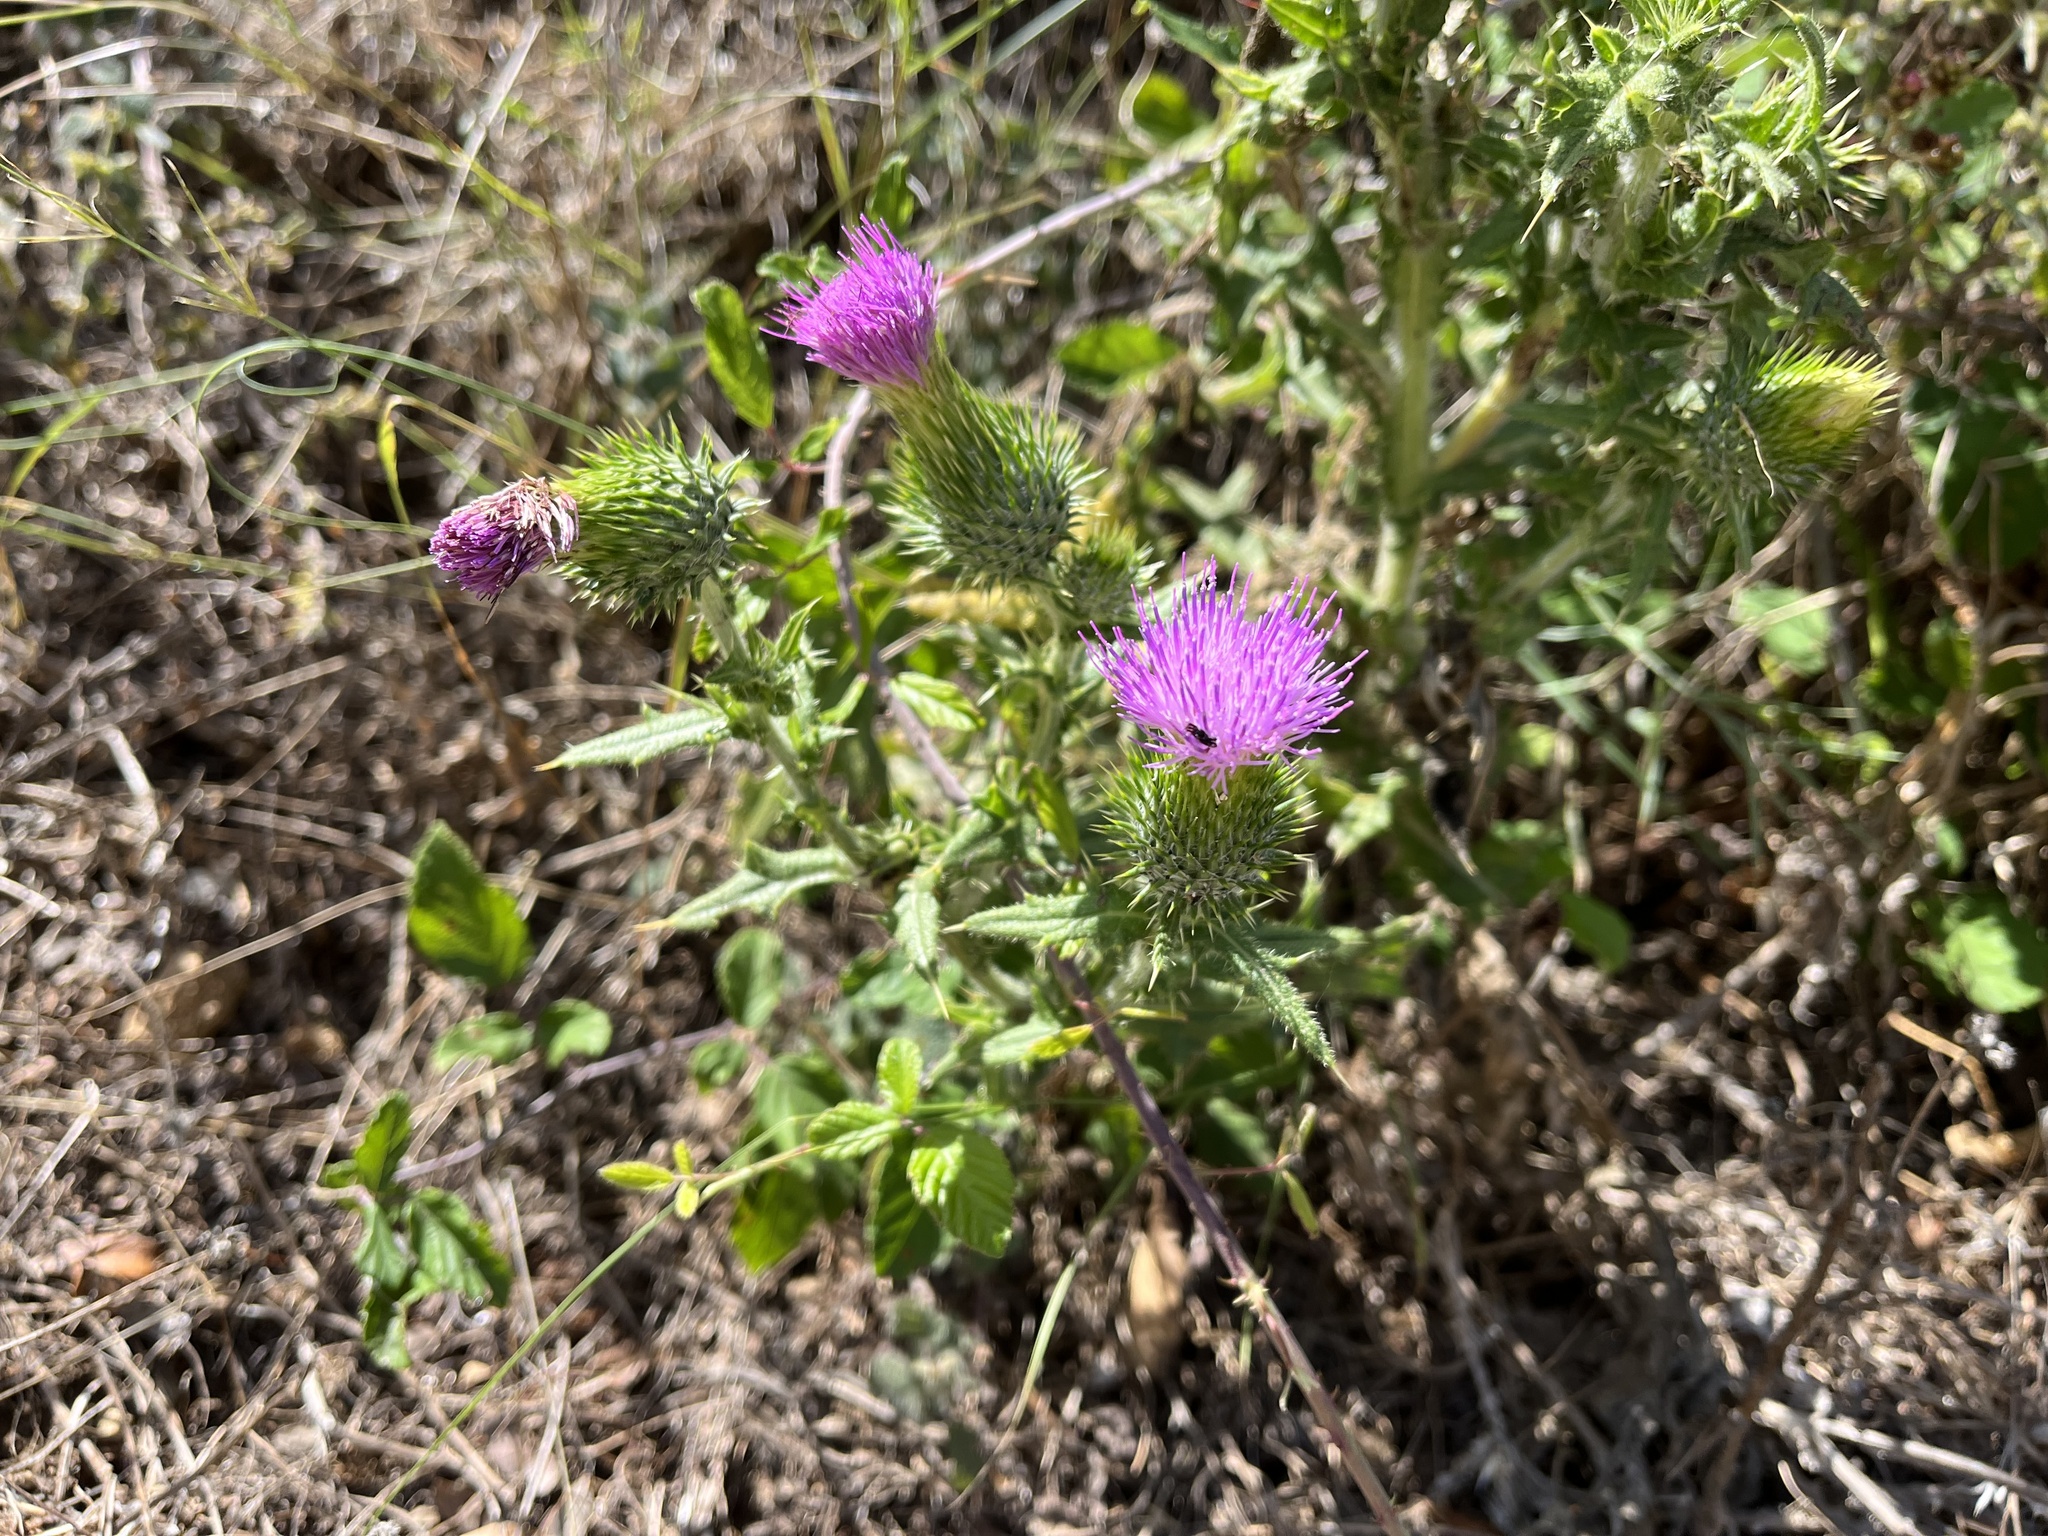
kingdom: Plantae
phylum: Tracheophyta
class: Magnoliopsida
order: Asterales
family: Asteraceae
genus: Cirsium
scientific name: Cirsium vulgare
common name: Bull thistle
